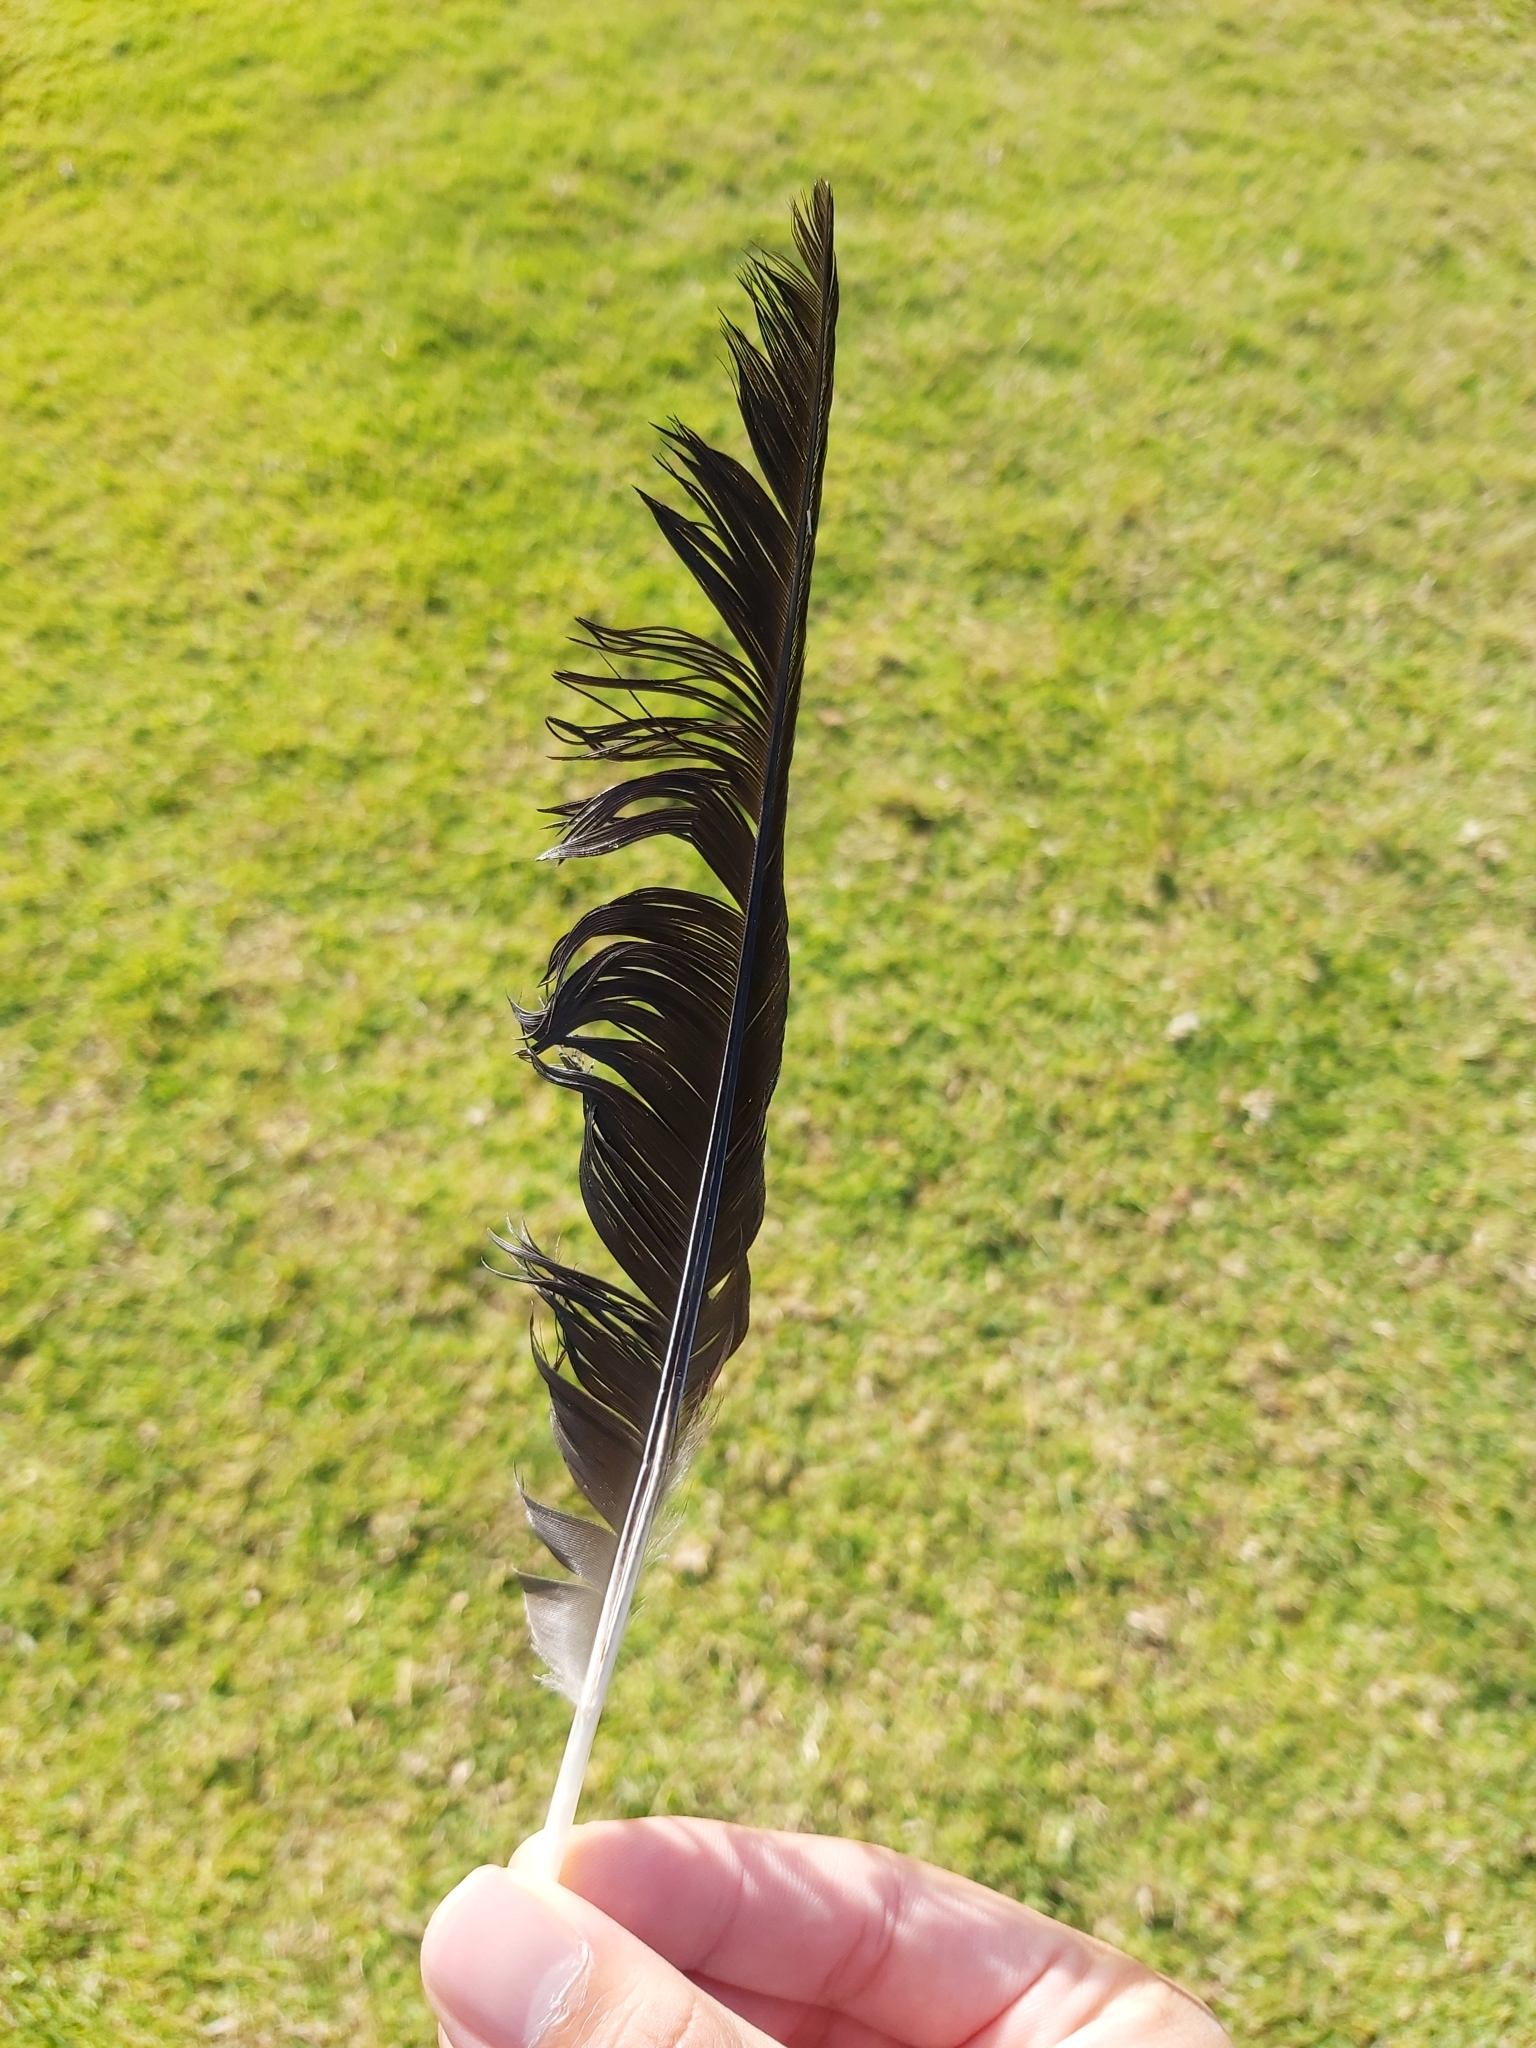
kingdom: Animalia
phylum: Chordata
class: Aves
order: Passeriformes
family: Cracticidae
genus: Gymnorhina
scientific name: Gymnorhina tibicen
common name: Australian magpie
